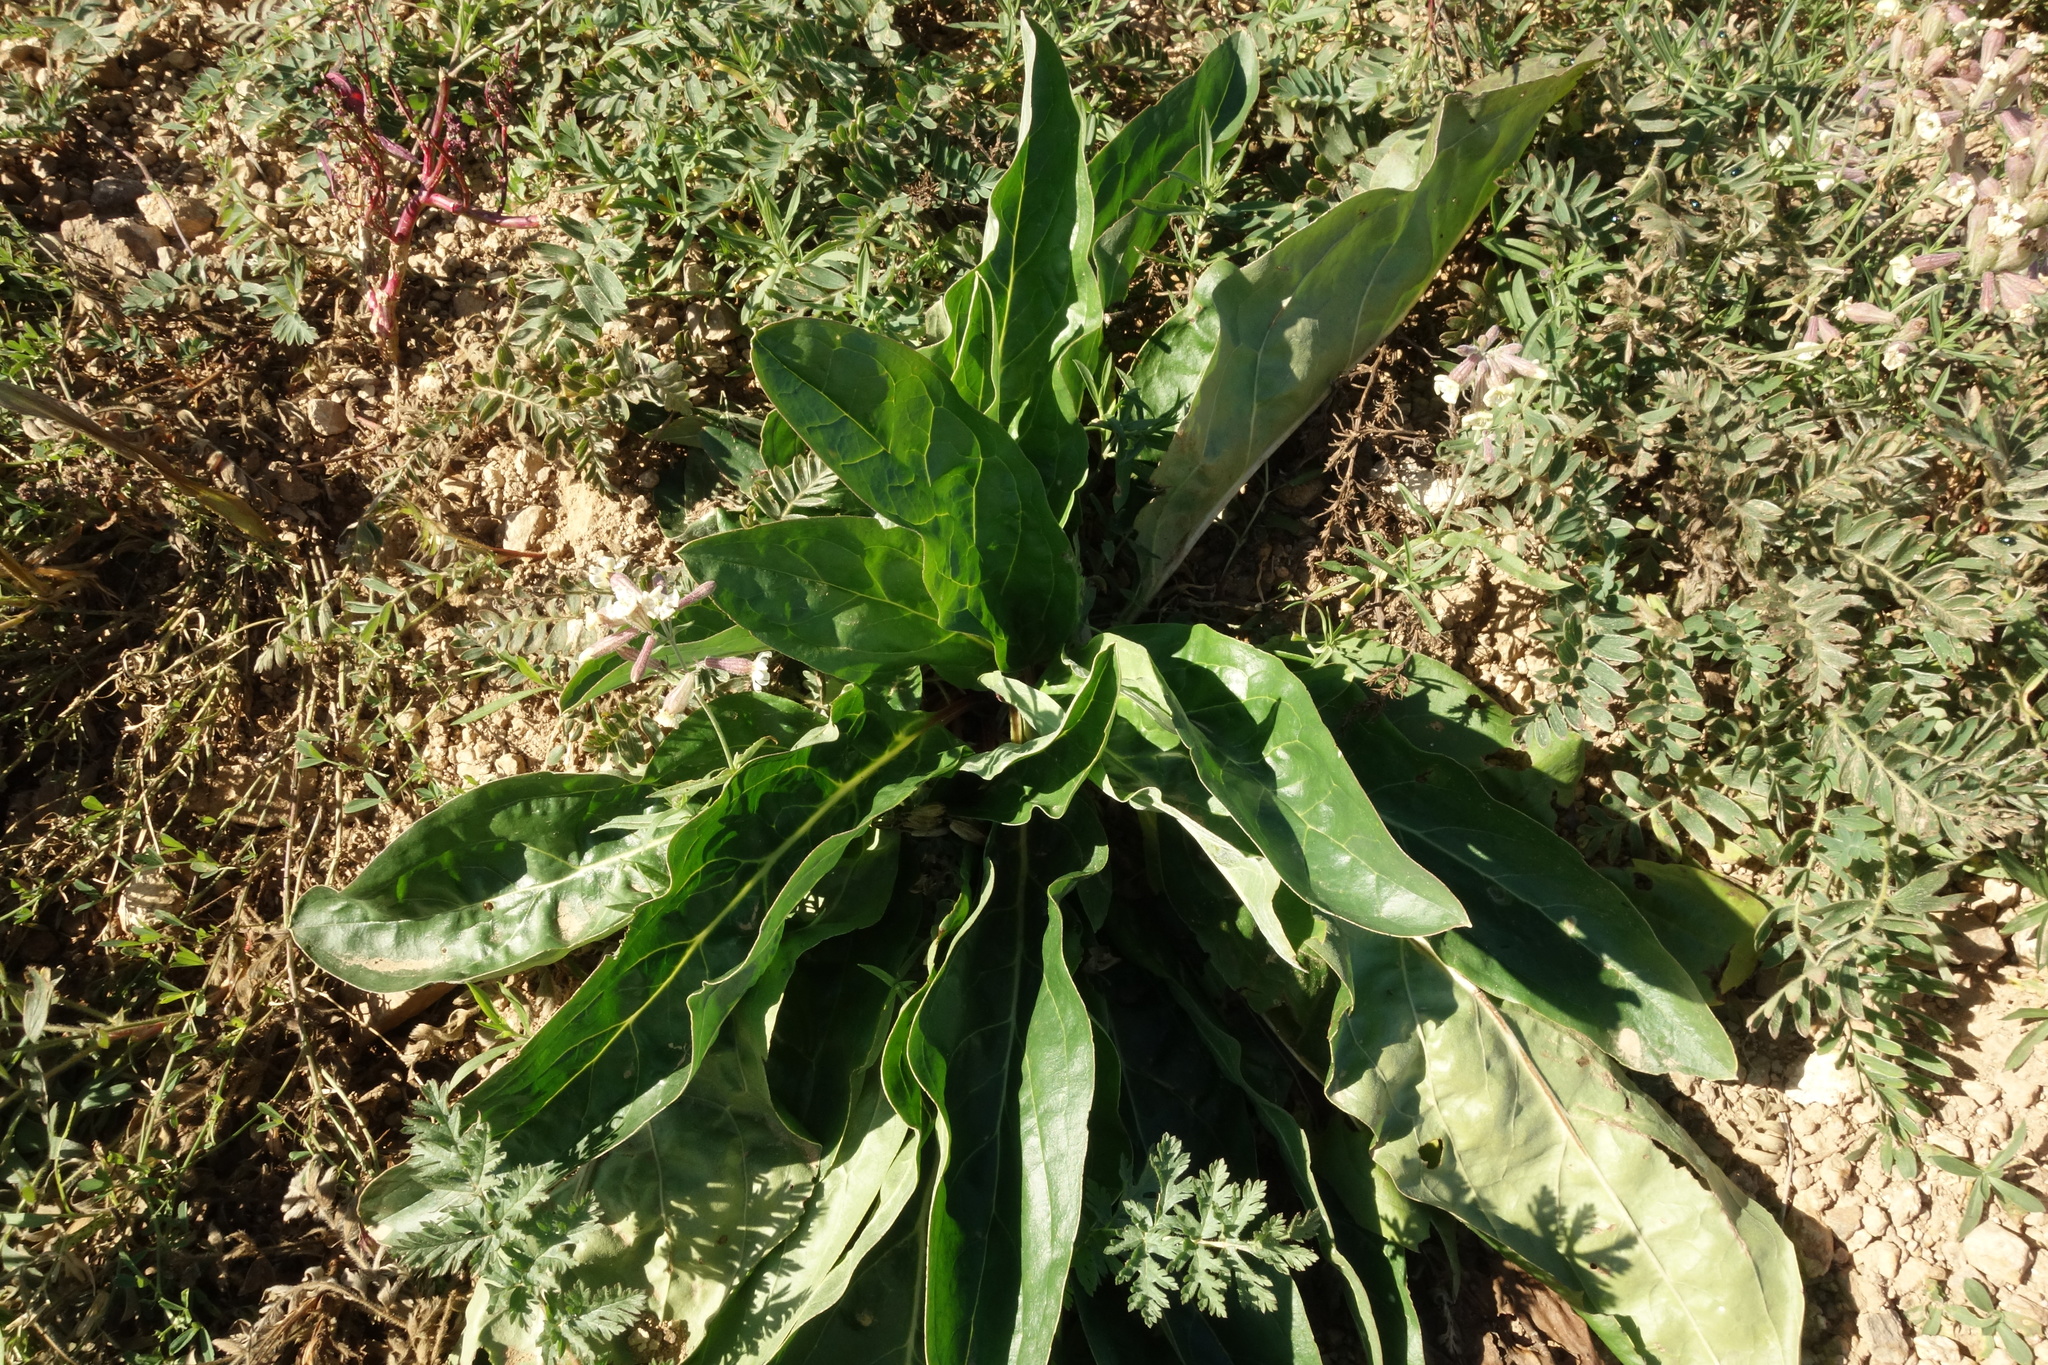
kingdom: Plantae
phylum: Tracheophyta
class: Magnoliopsida
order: Boraginales
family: Boraginaceae
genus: Cynoglossum
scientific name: Cynoglossum divaricatum
